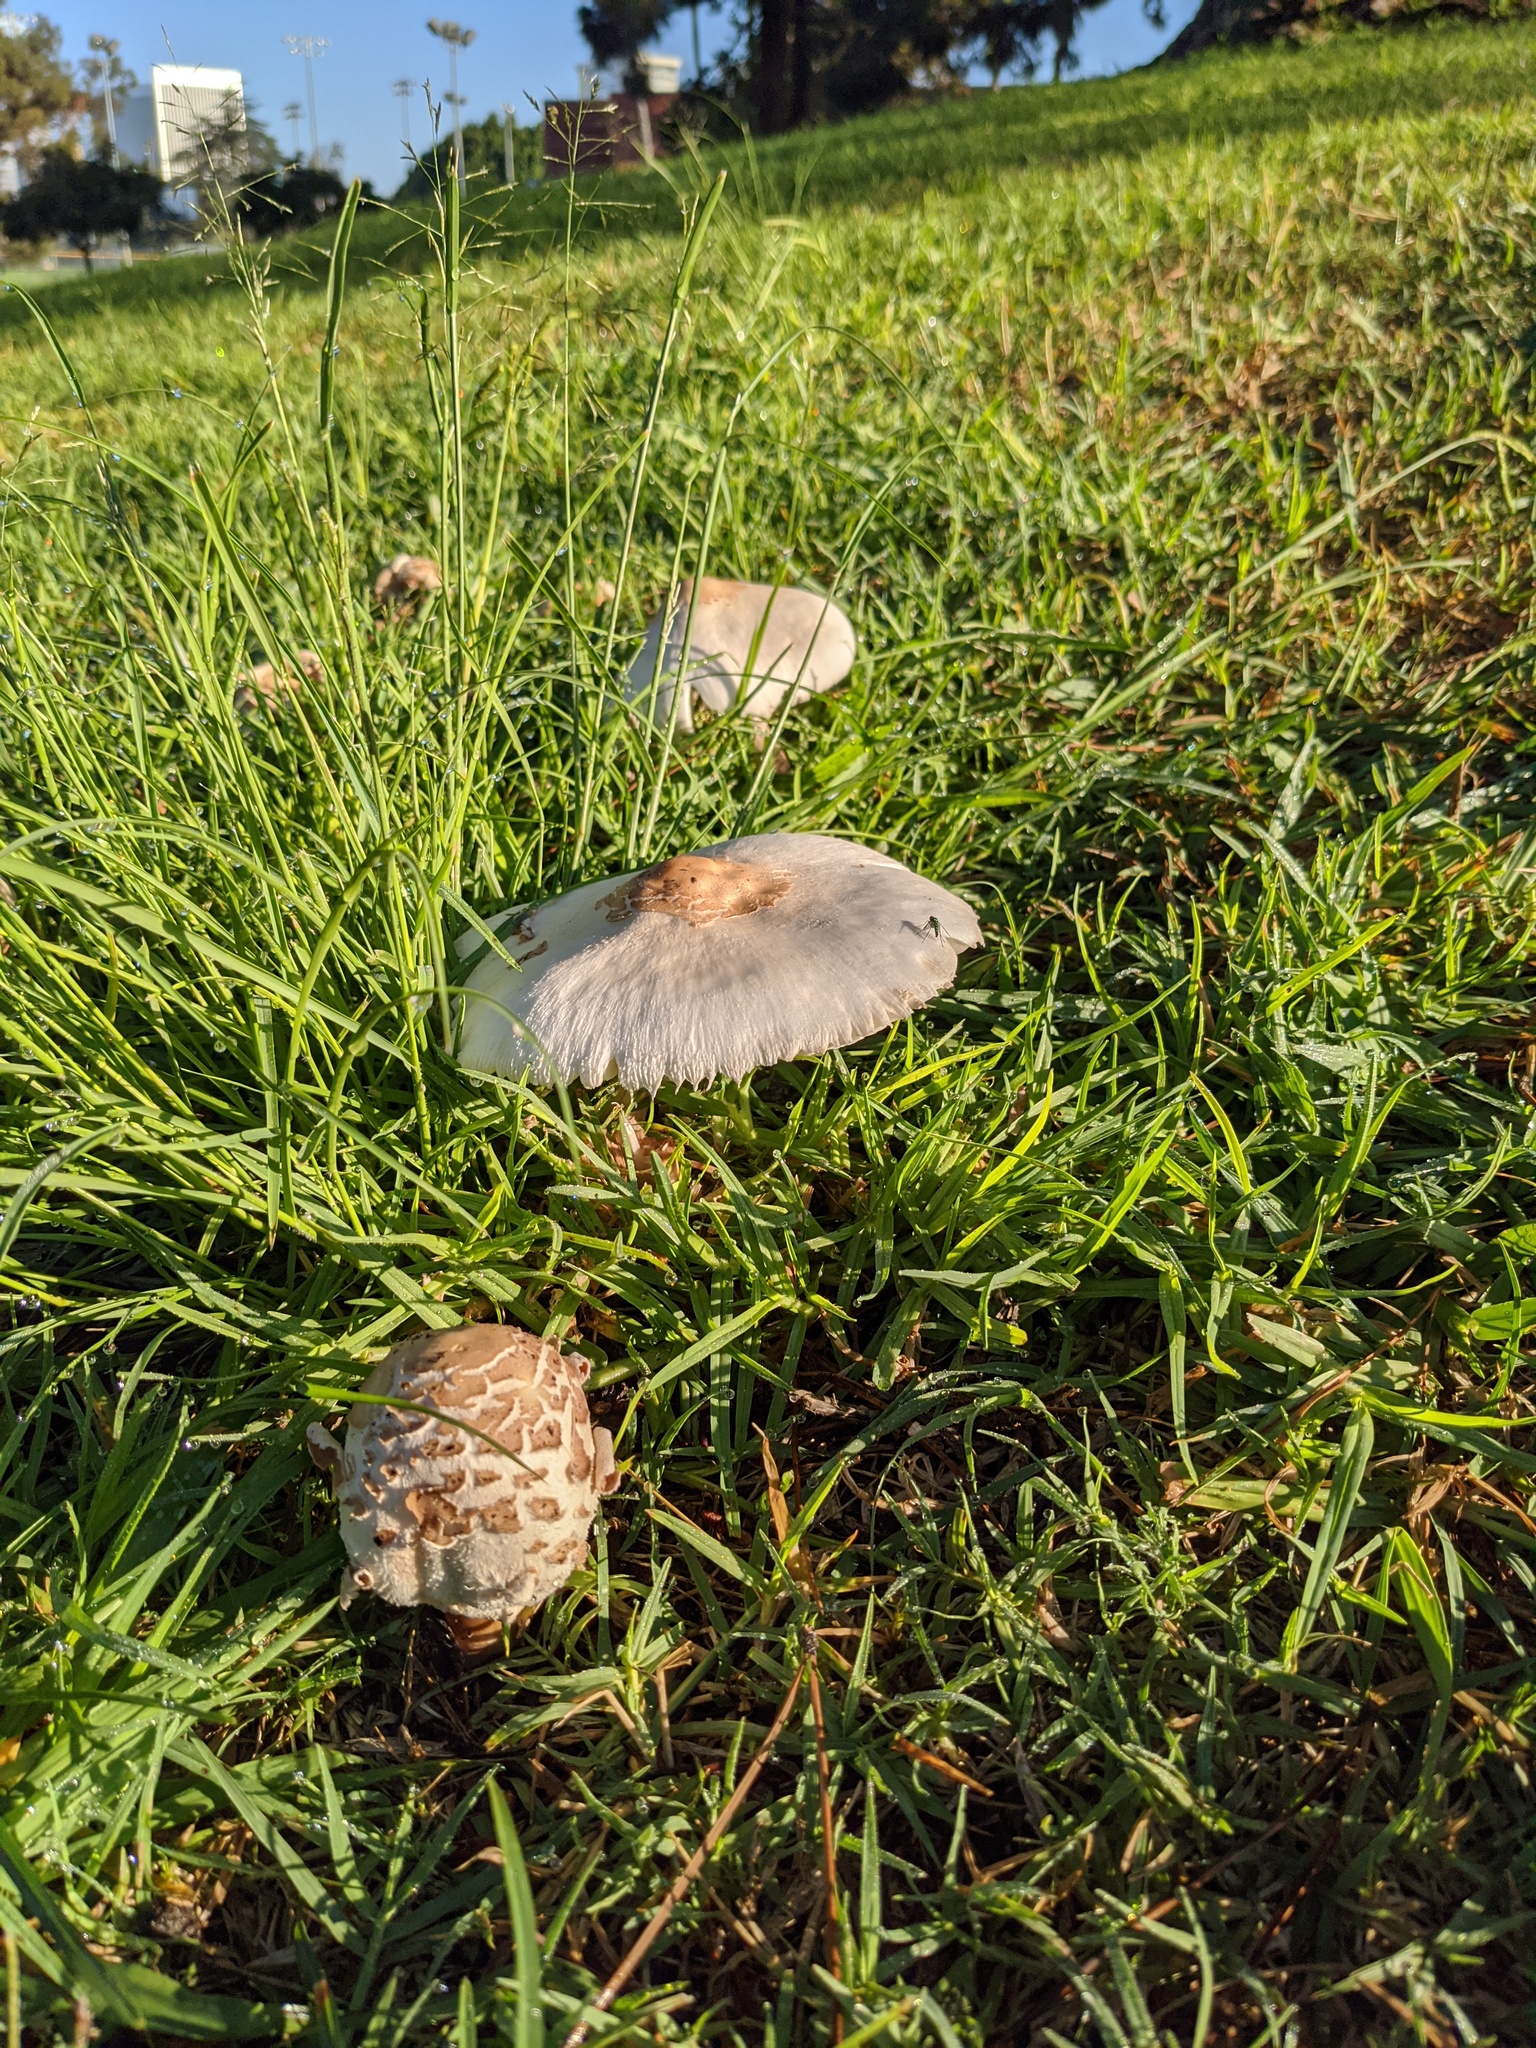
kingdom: Fungi
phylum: Basidiomycota
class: Agaricomycetes
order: Agaricales
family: Agaricaceae
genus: Chlorophyllum
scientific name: Chlorophyllum molybdites
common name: False parasol
